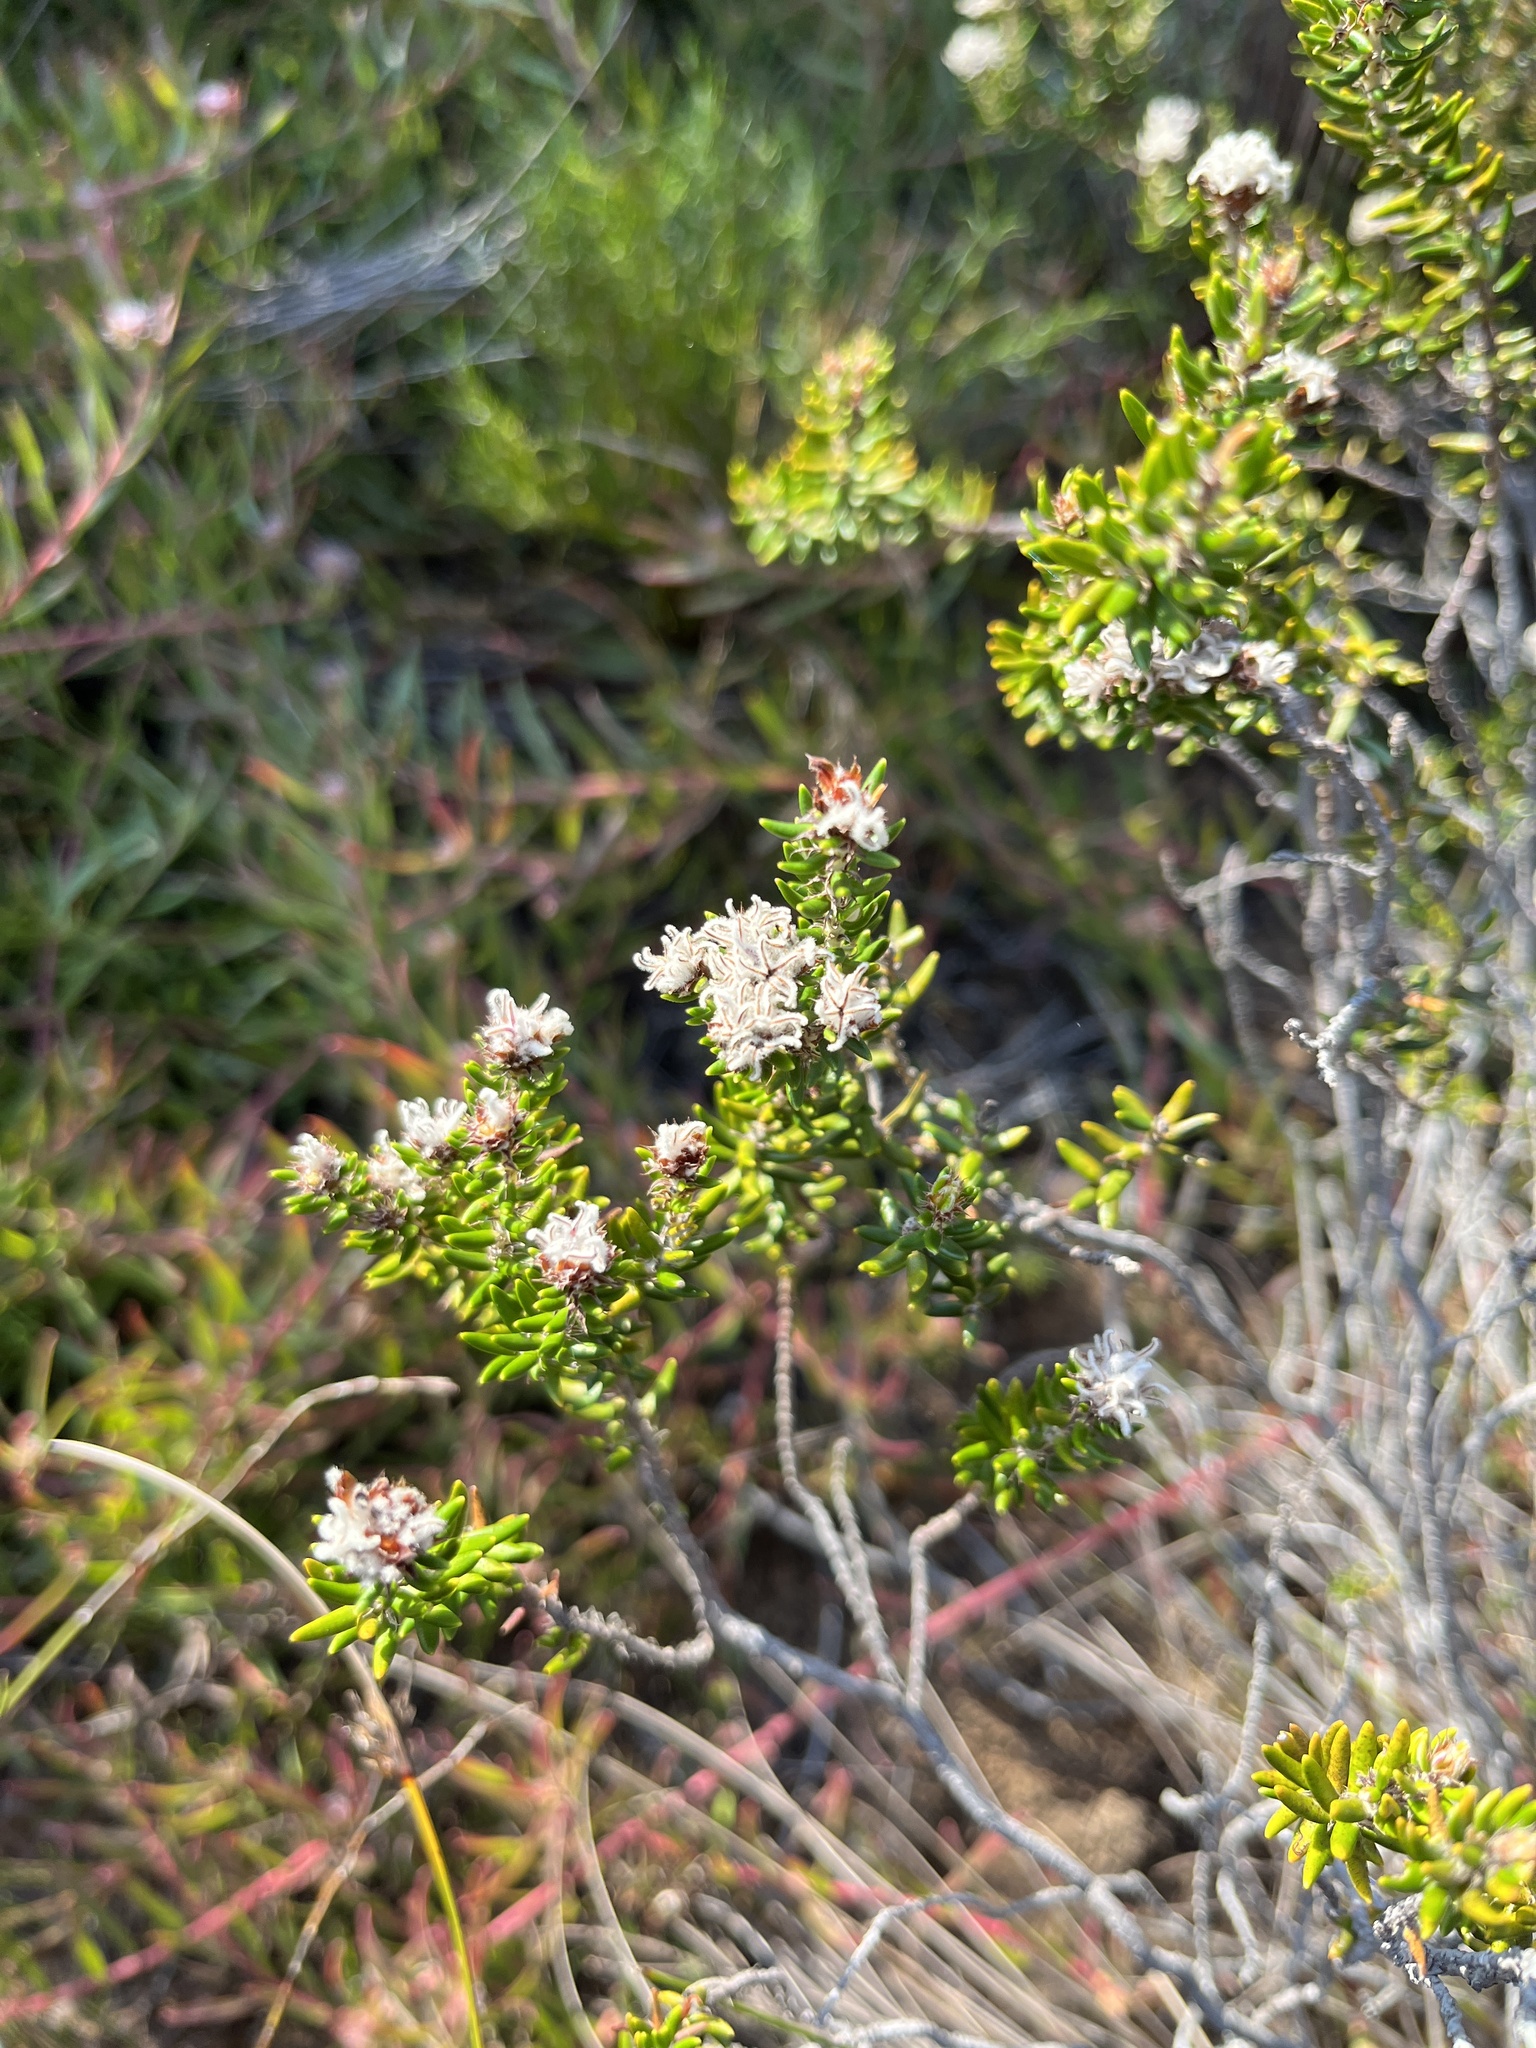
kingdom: Plantae
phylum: Tracheophyta
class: Magnoliopsida
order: Rosales
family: Rhamnaceae
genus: Trichocephalus
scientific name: Trichocephalus stipularis
